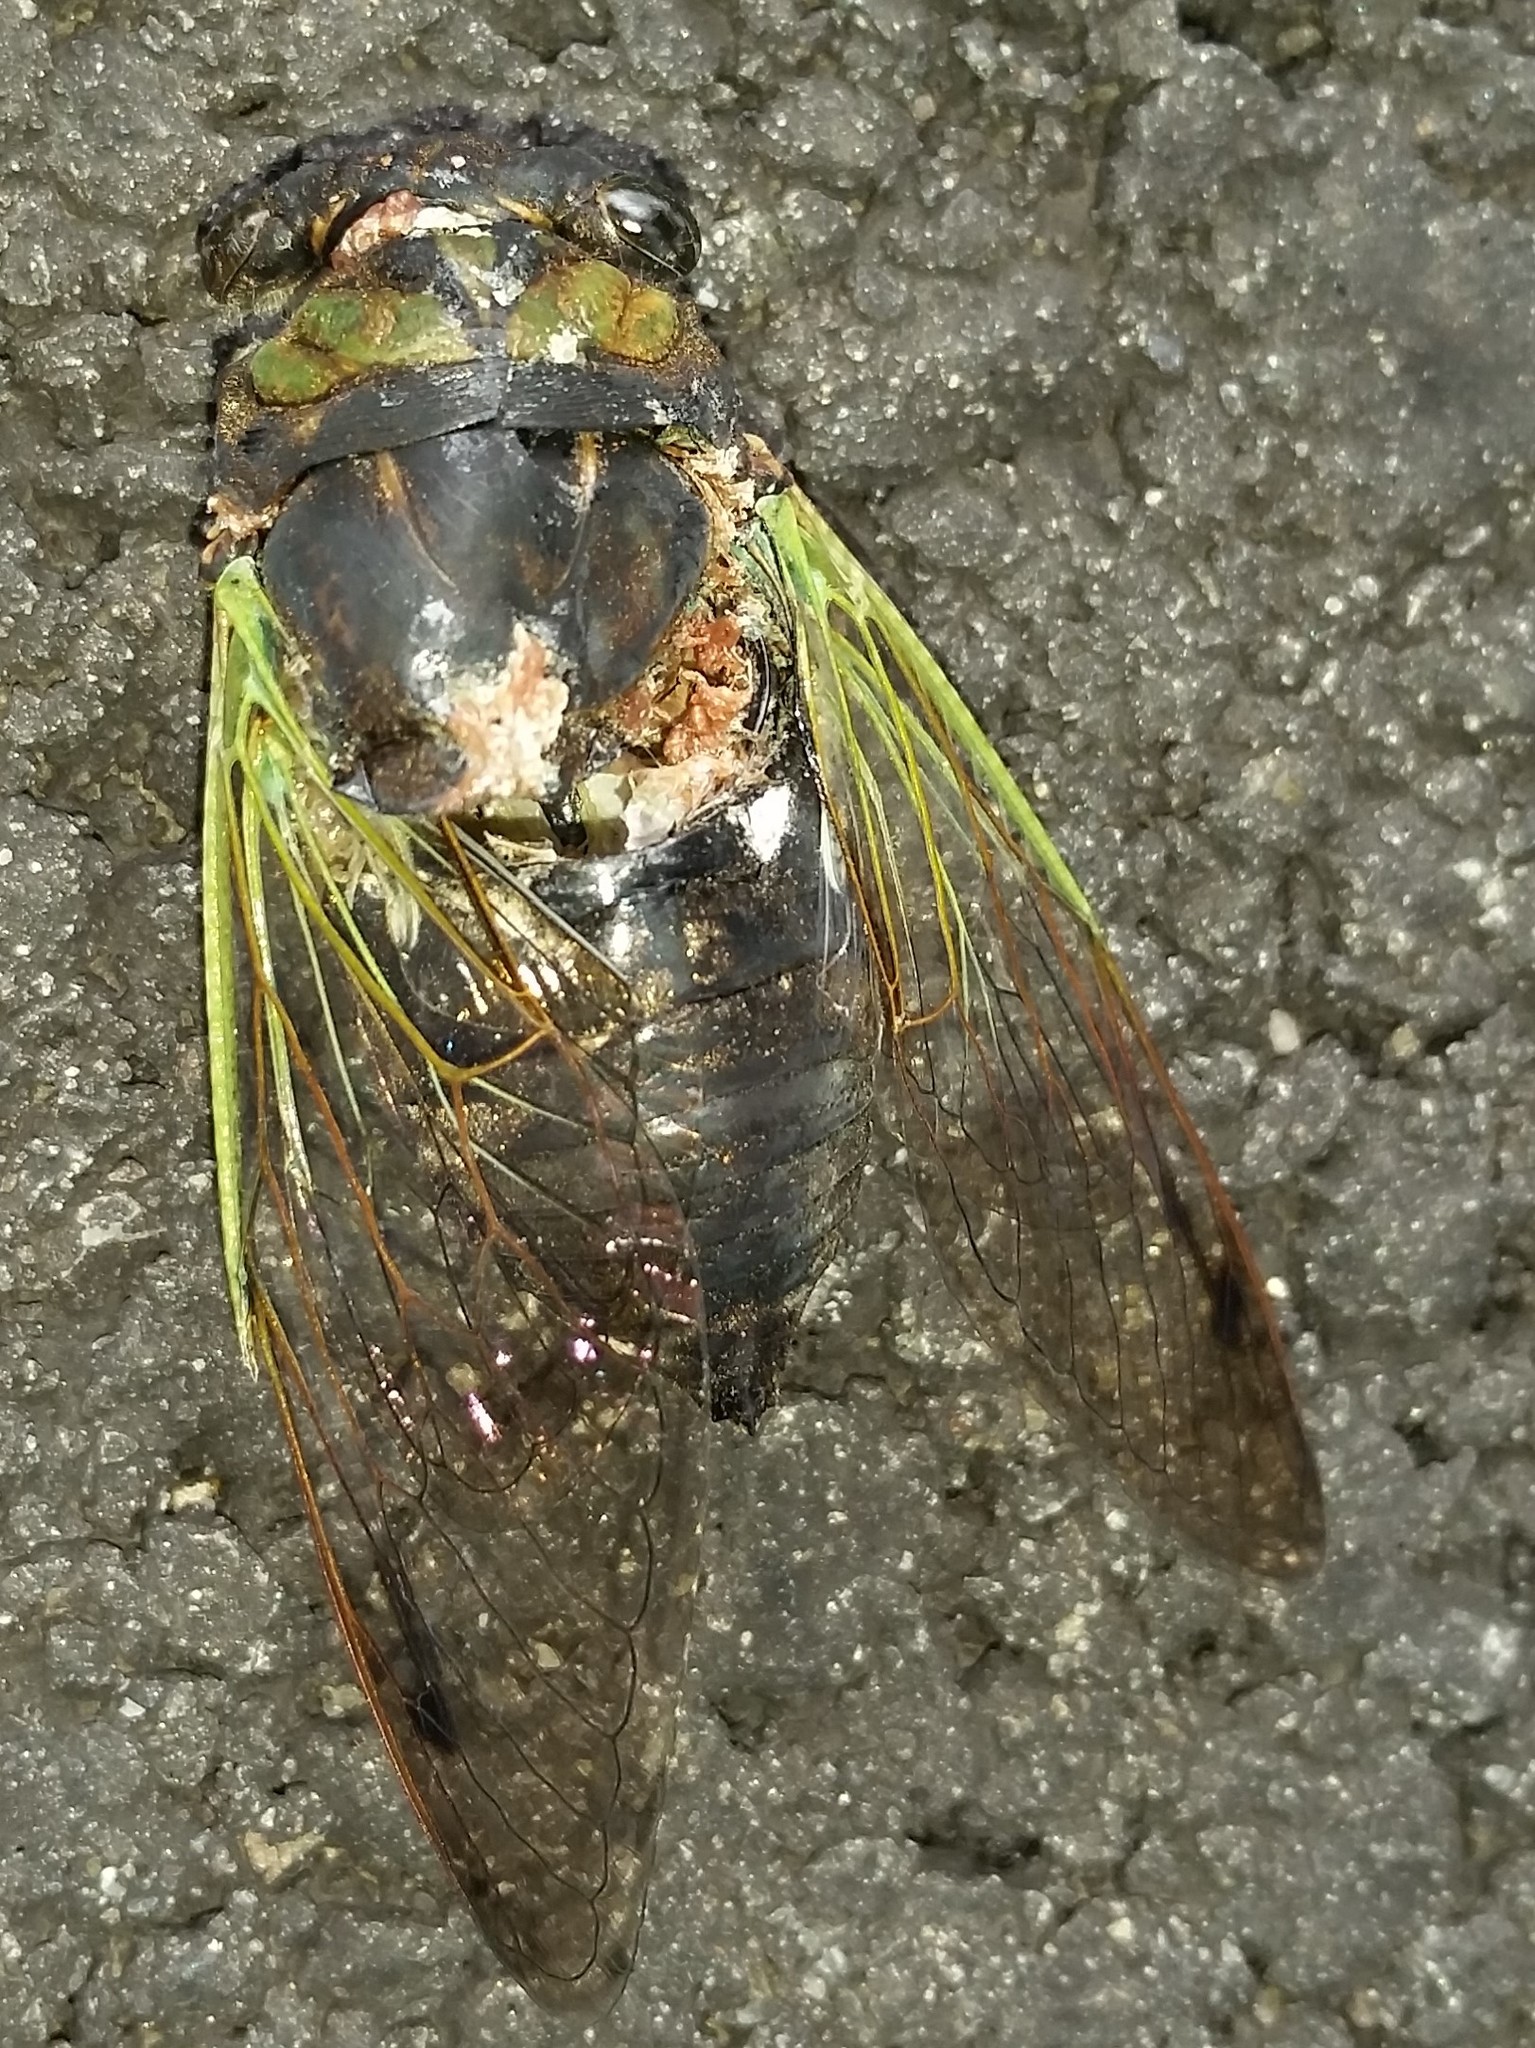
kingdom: Animalia
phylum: Arthropoda
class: Insecta
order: Hemiptera
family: Cicadidae
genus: Neotibicen
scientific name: Neotibicen tibicen
